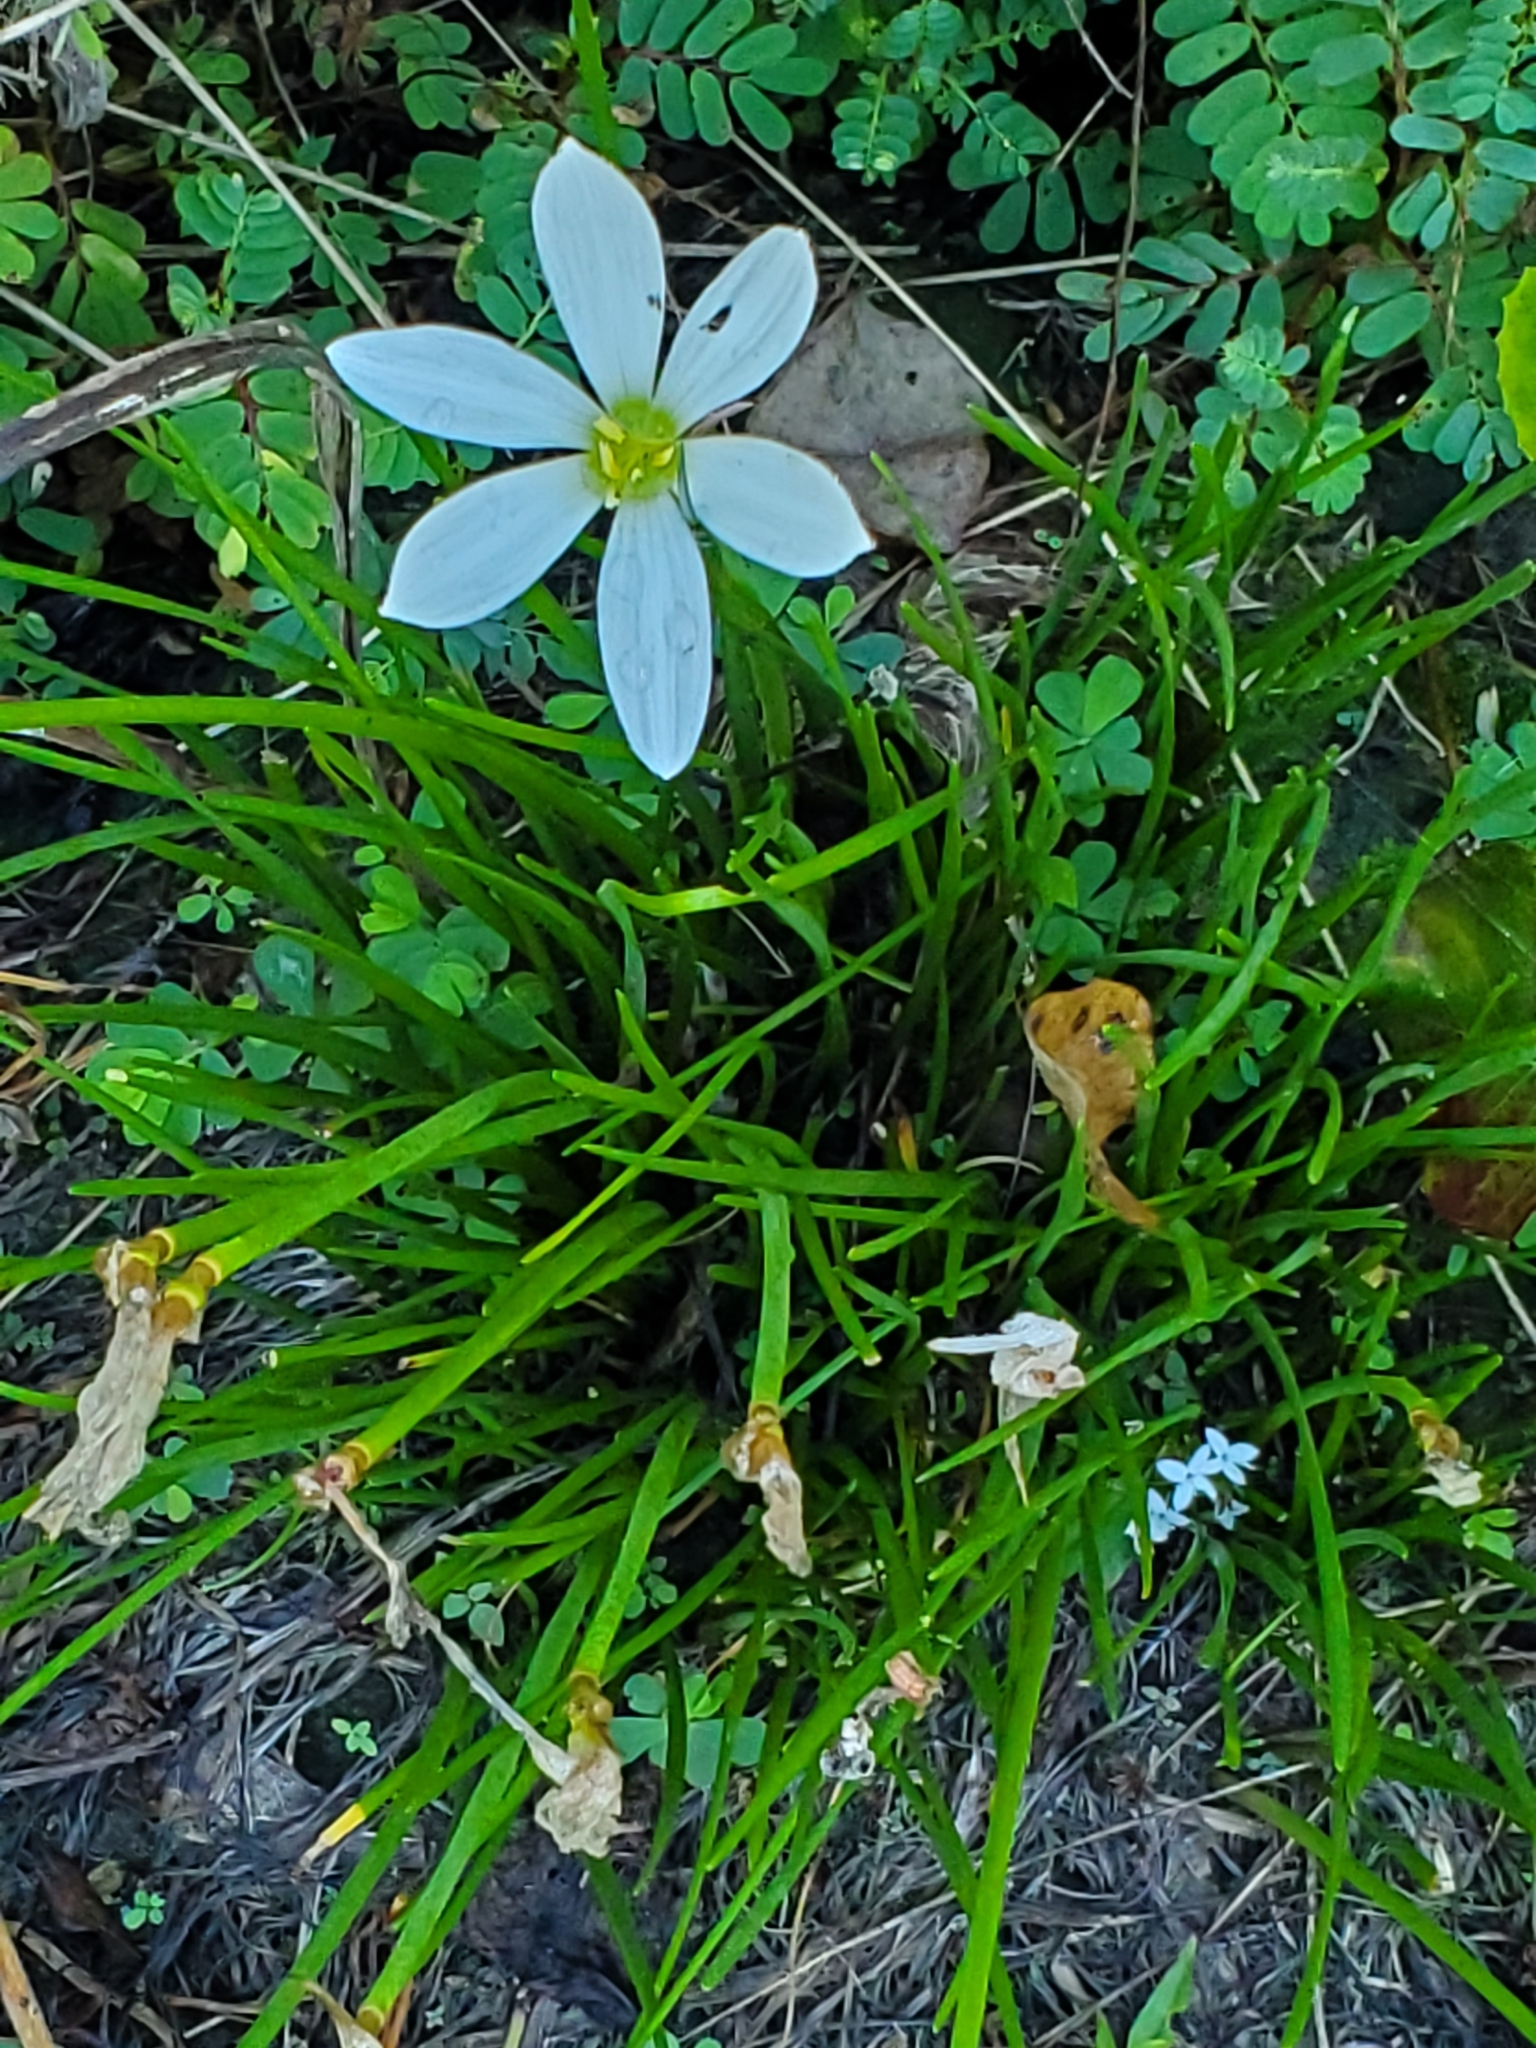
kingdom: Plantae
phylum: Tracheophyta
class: Liliopsida
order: Asparagales
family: Amaryllidaceae
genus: Zephyranthes
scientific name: Zephyranthes candida
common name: Autumn zephyrlily
